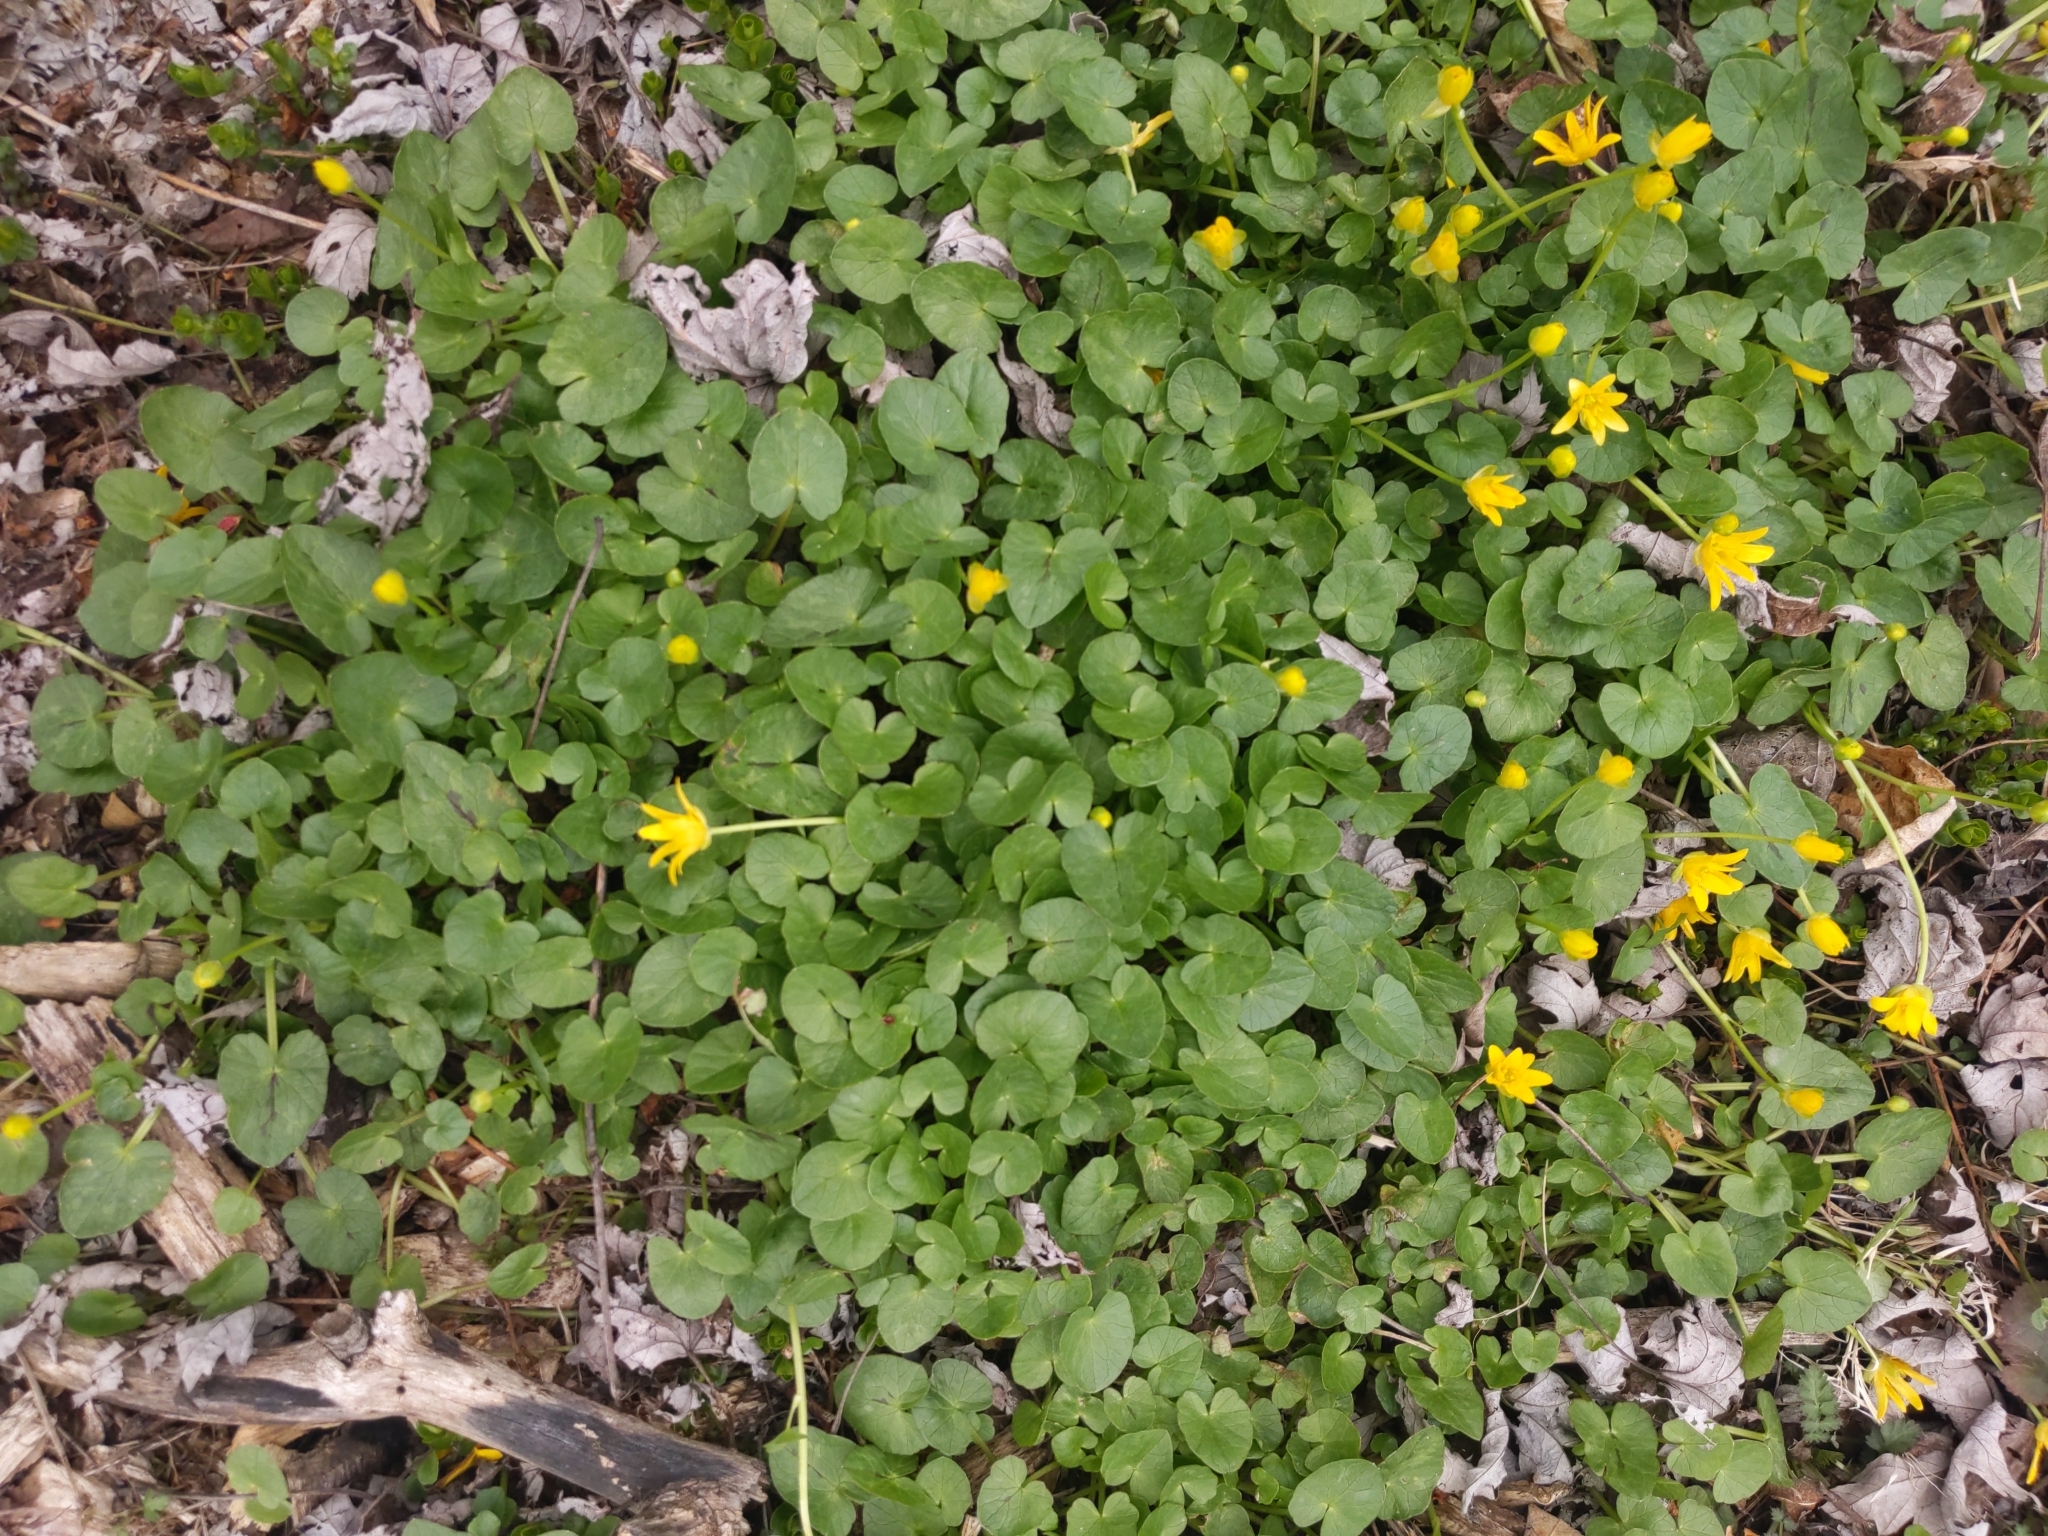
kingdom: Plantae
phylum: Tracheophyta
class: Magnoliopsida
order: Ranunculales
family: Ranunculaceae
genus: Ficaria
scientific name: Ficaria verna
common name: Lesser celandine
